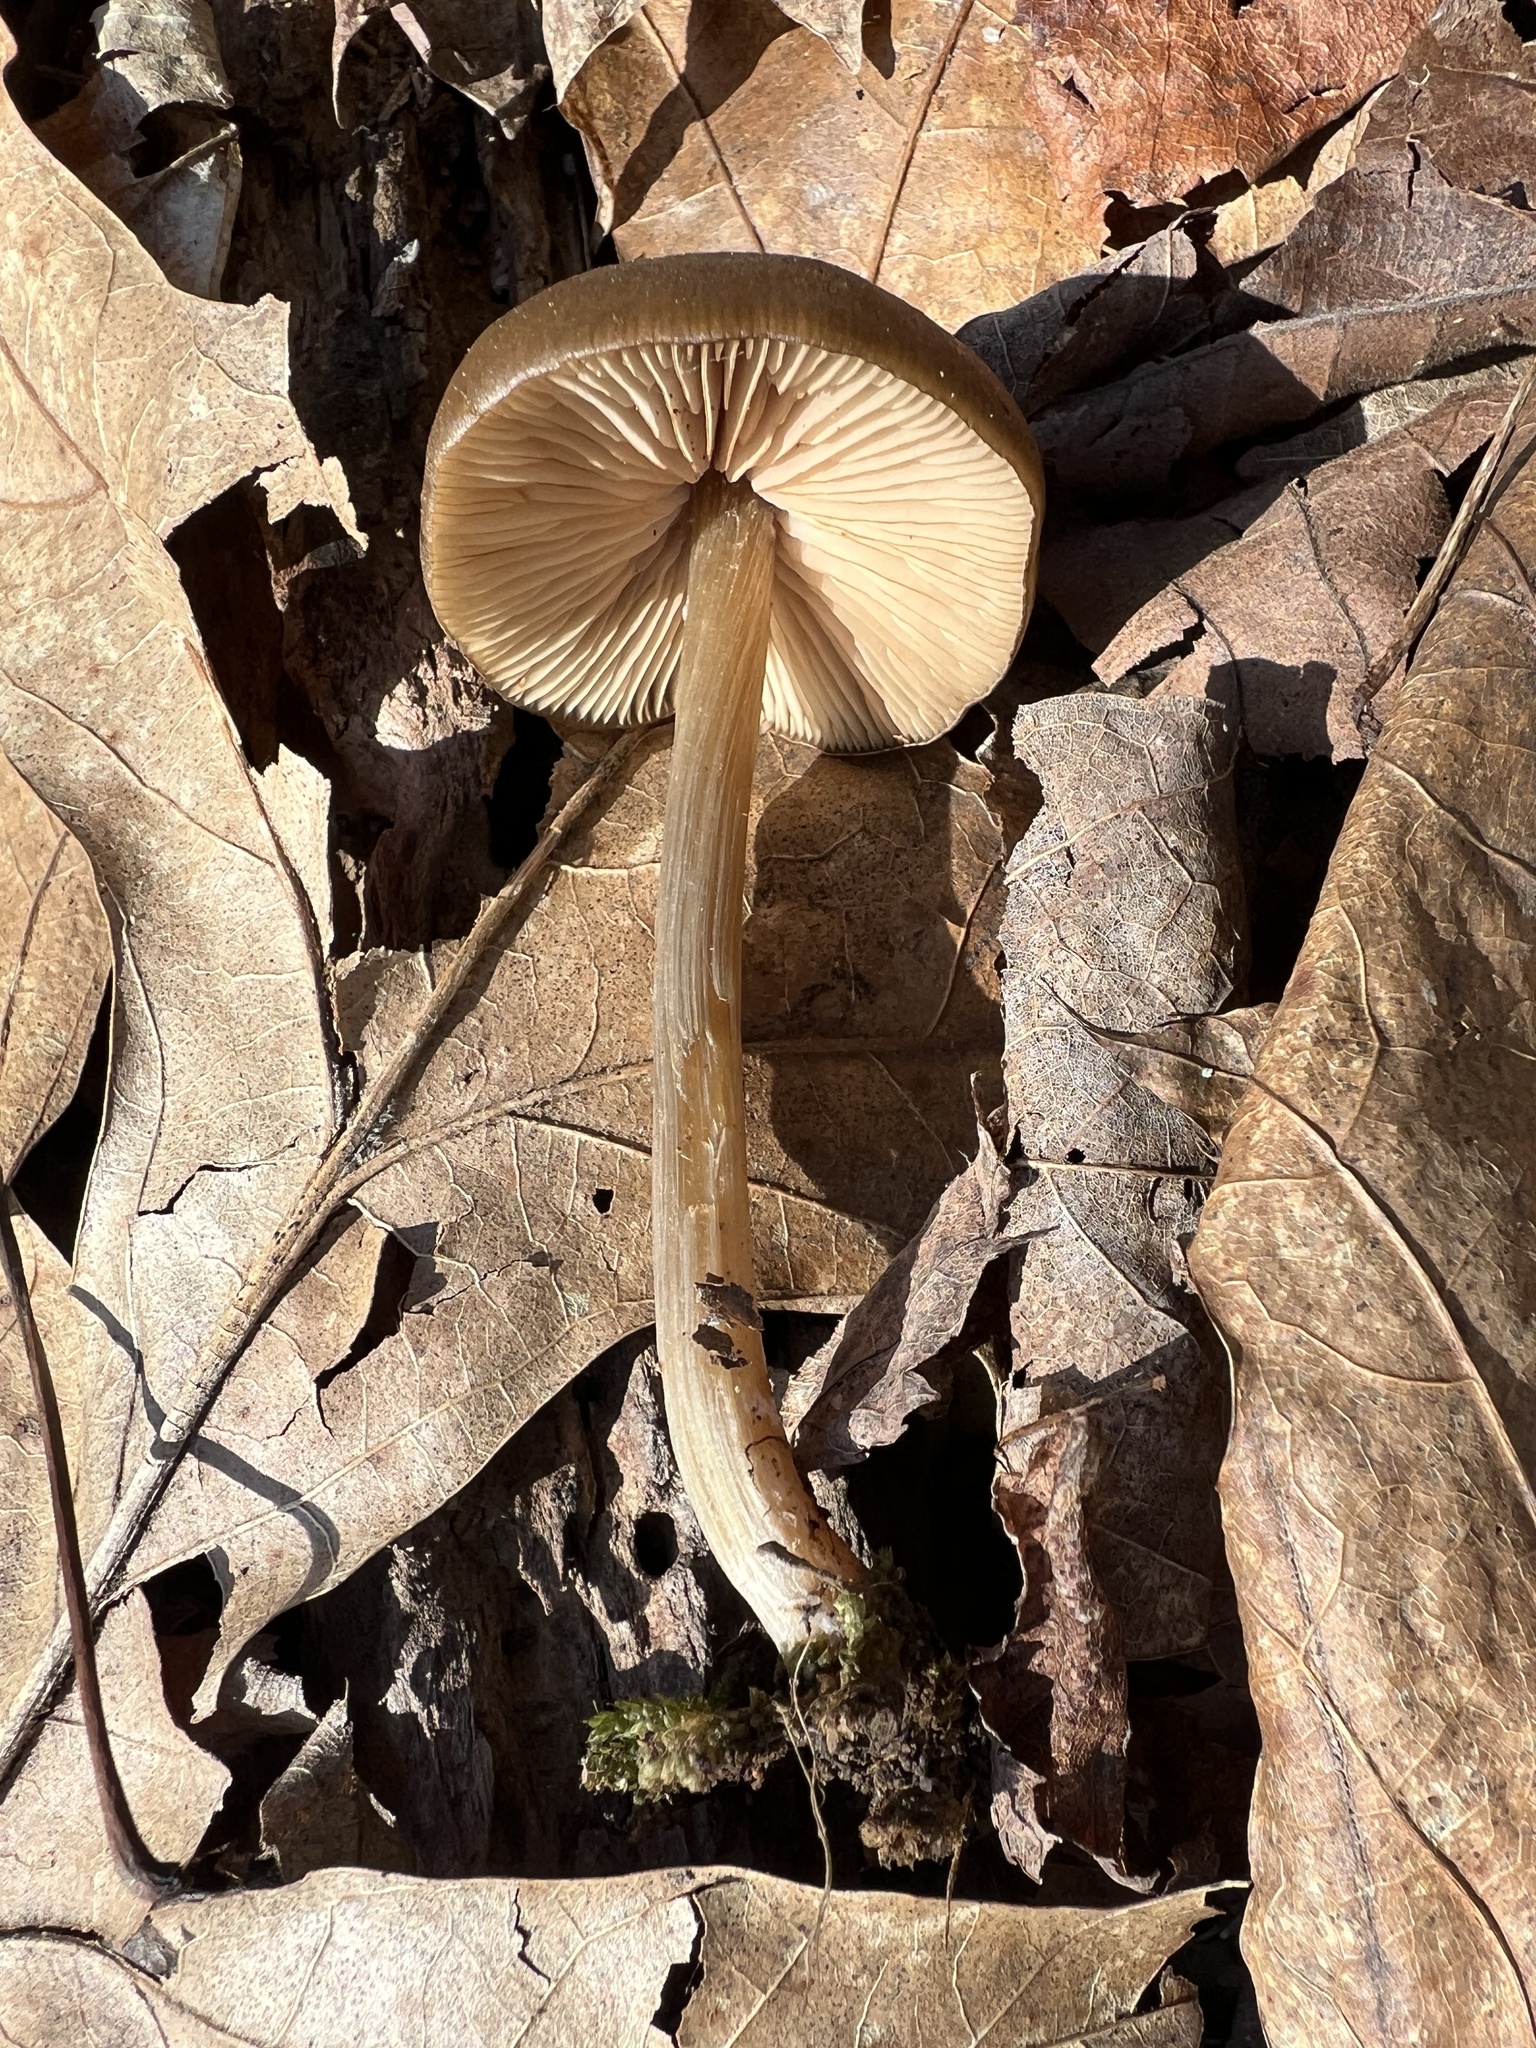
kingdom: Fungi
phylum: Basidiomycota
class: Agaricomycetes
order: Agaricales
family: Entolomataceae
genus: Entoloma
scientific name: Entoloma vernum
